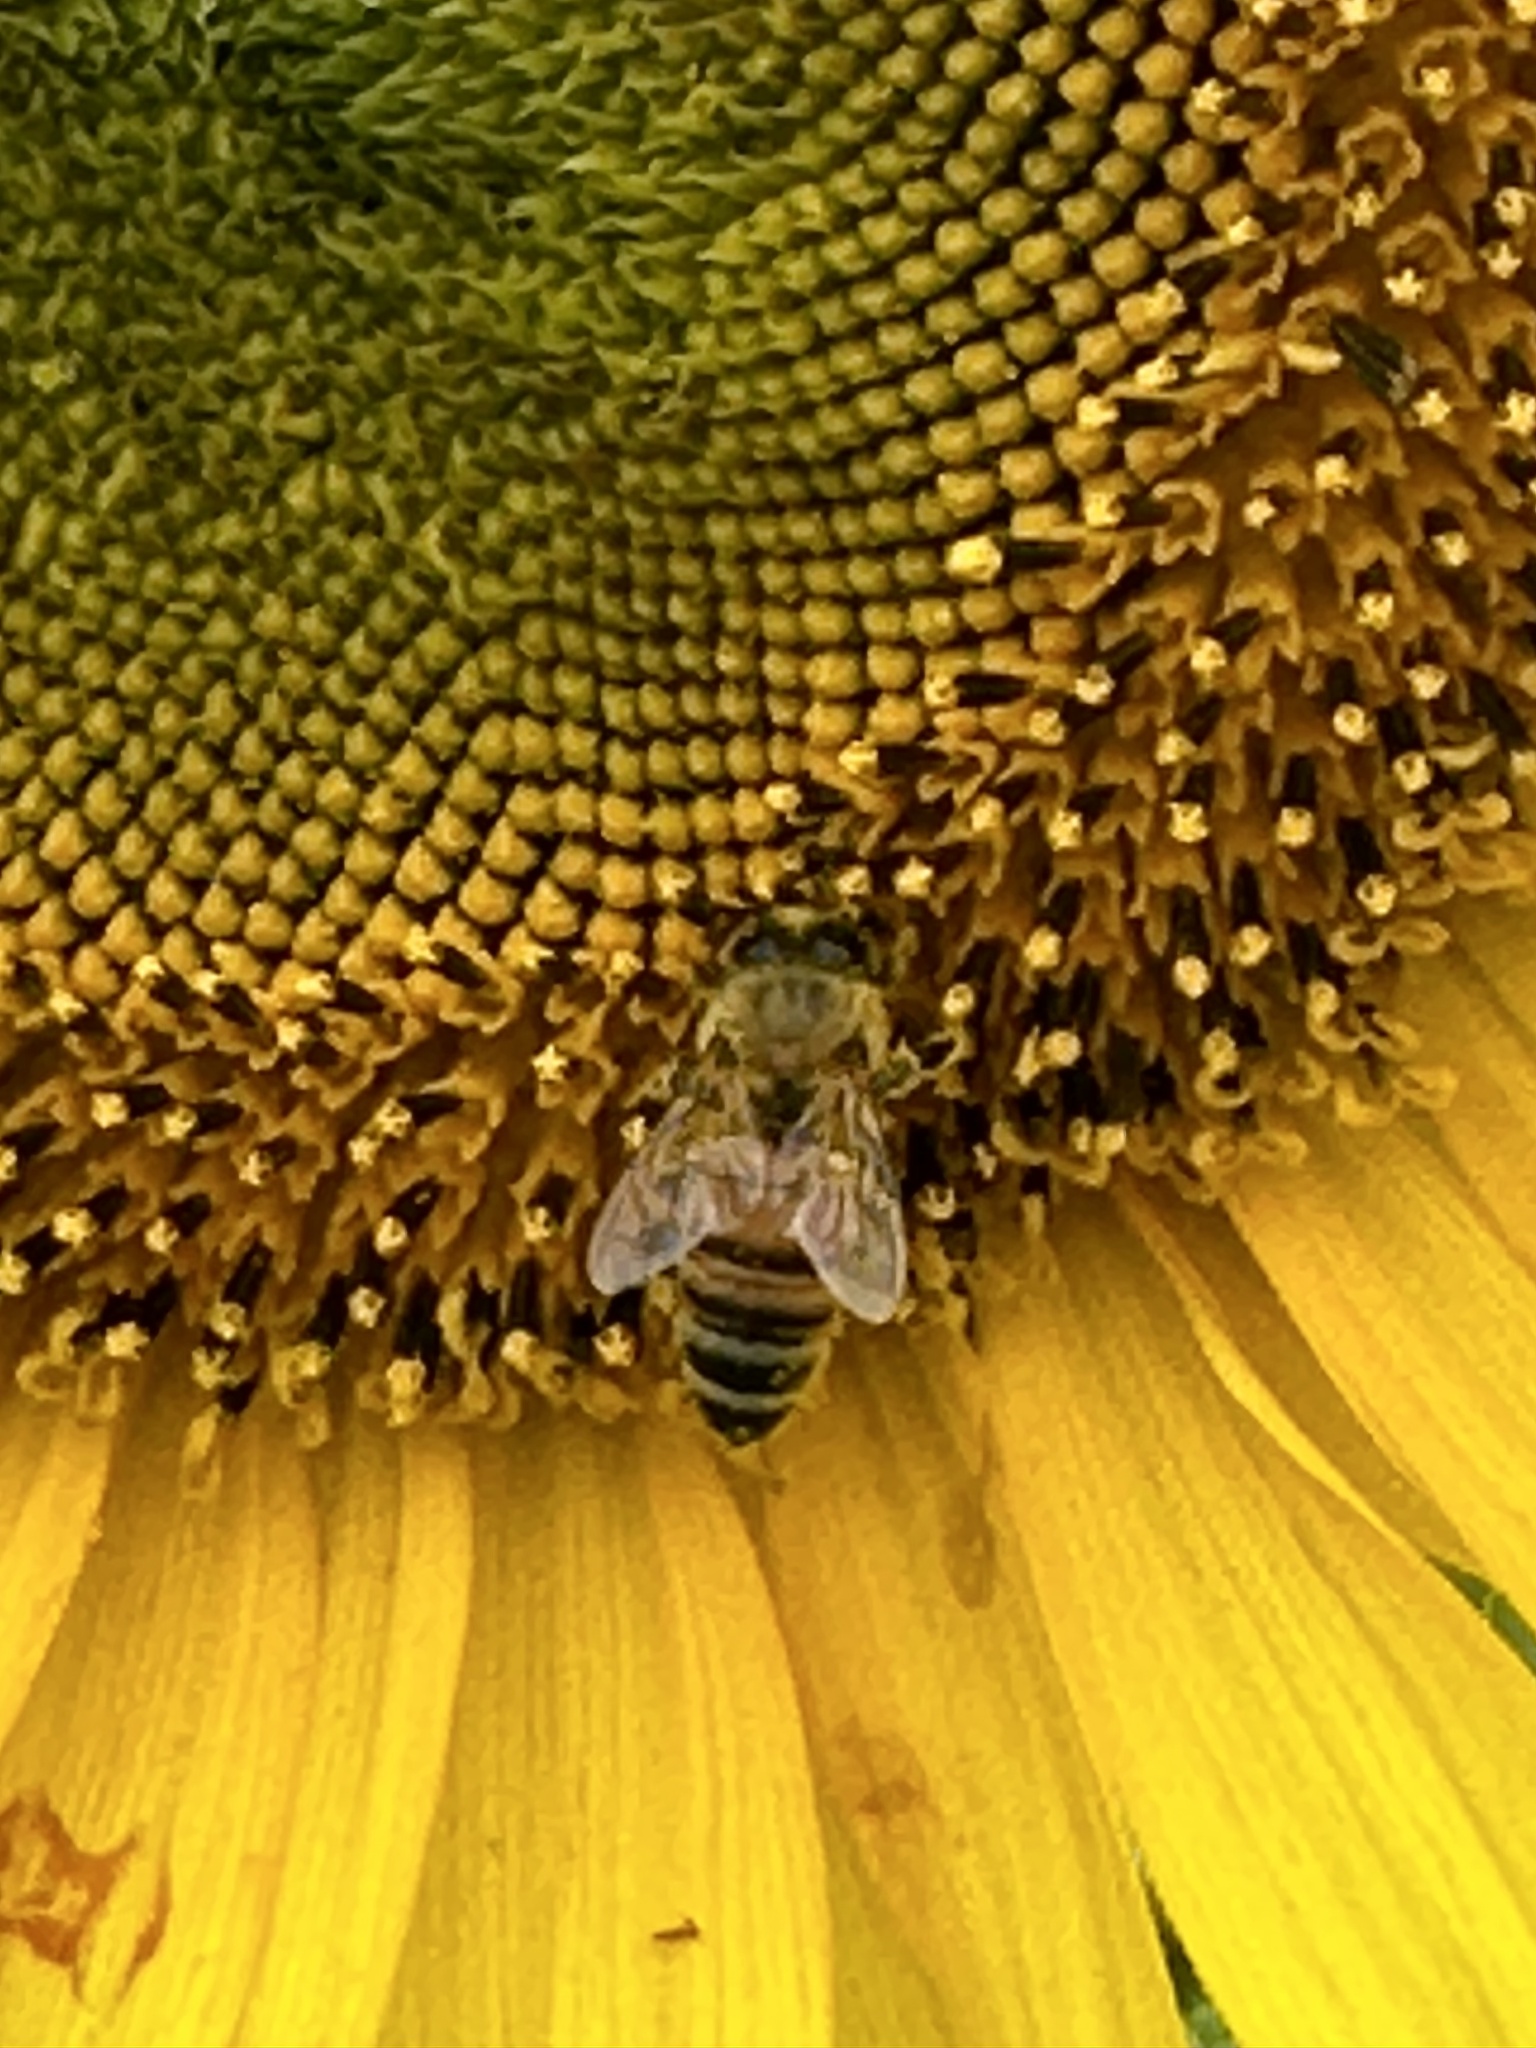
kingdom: Animalia
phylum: Arthropoda
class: Insecta
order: Hymenoptera
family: Apidae
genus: Apis
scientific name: Apis mellifera
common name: Honey bee
